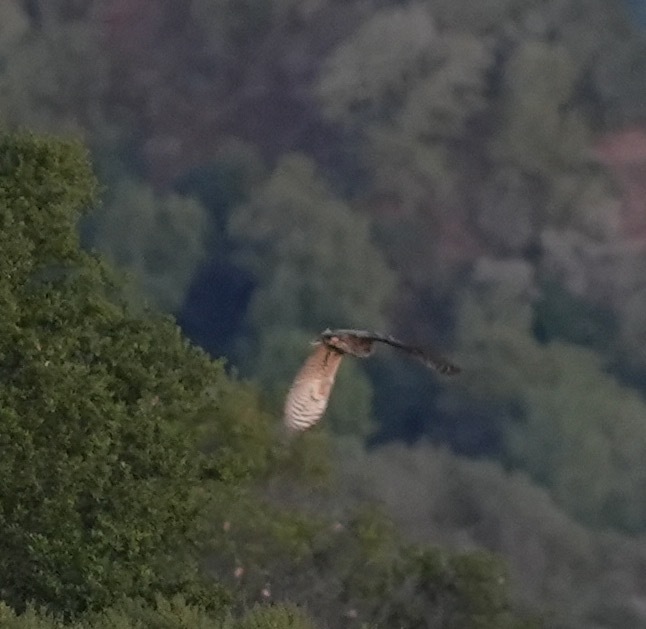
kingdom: Animalia
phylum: Chordata
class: Aves
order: Strigiformes
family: Strigidae
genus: Bubo
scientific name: Bubo virginianus
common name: Great horned owl
